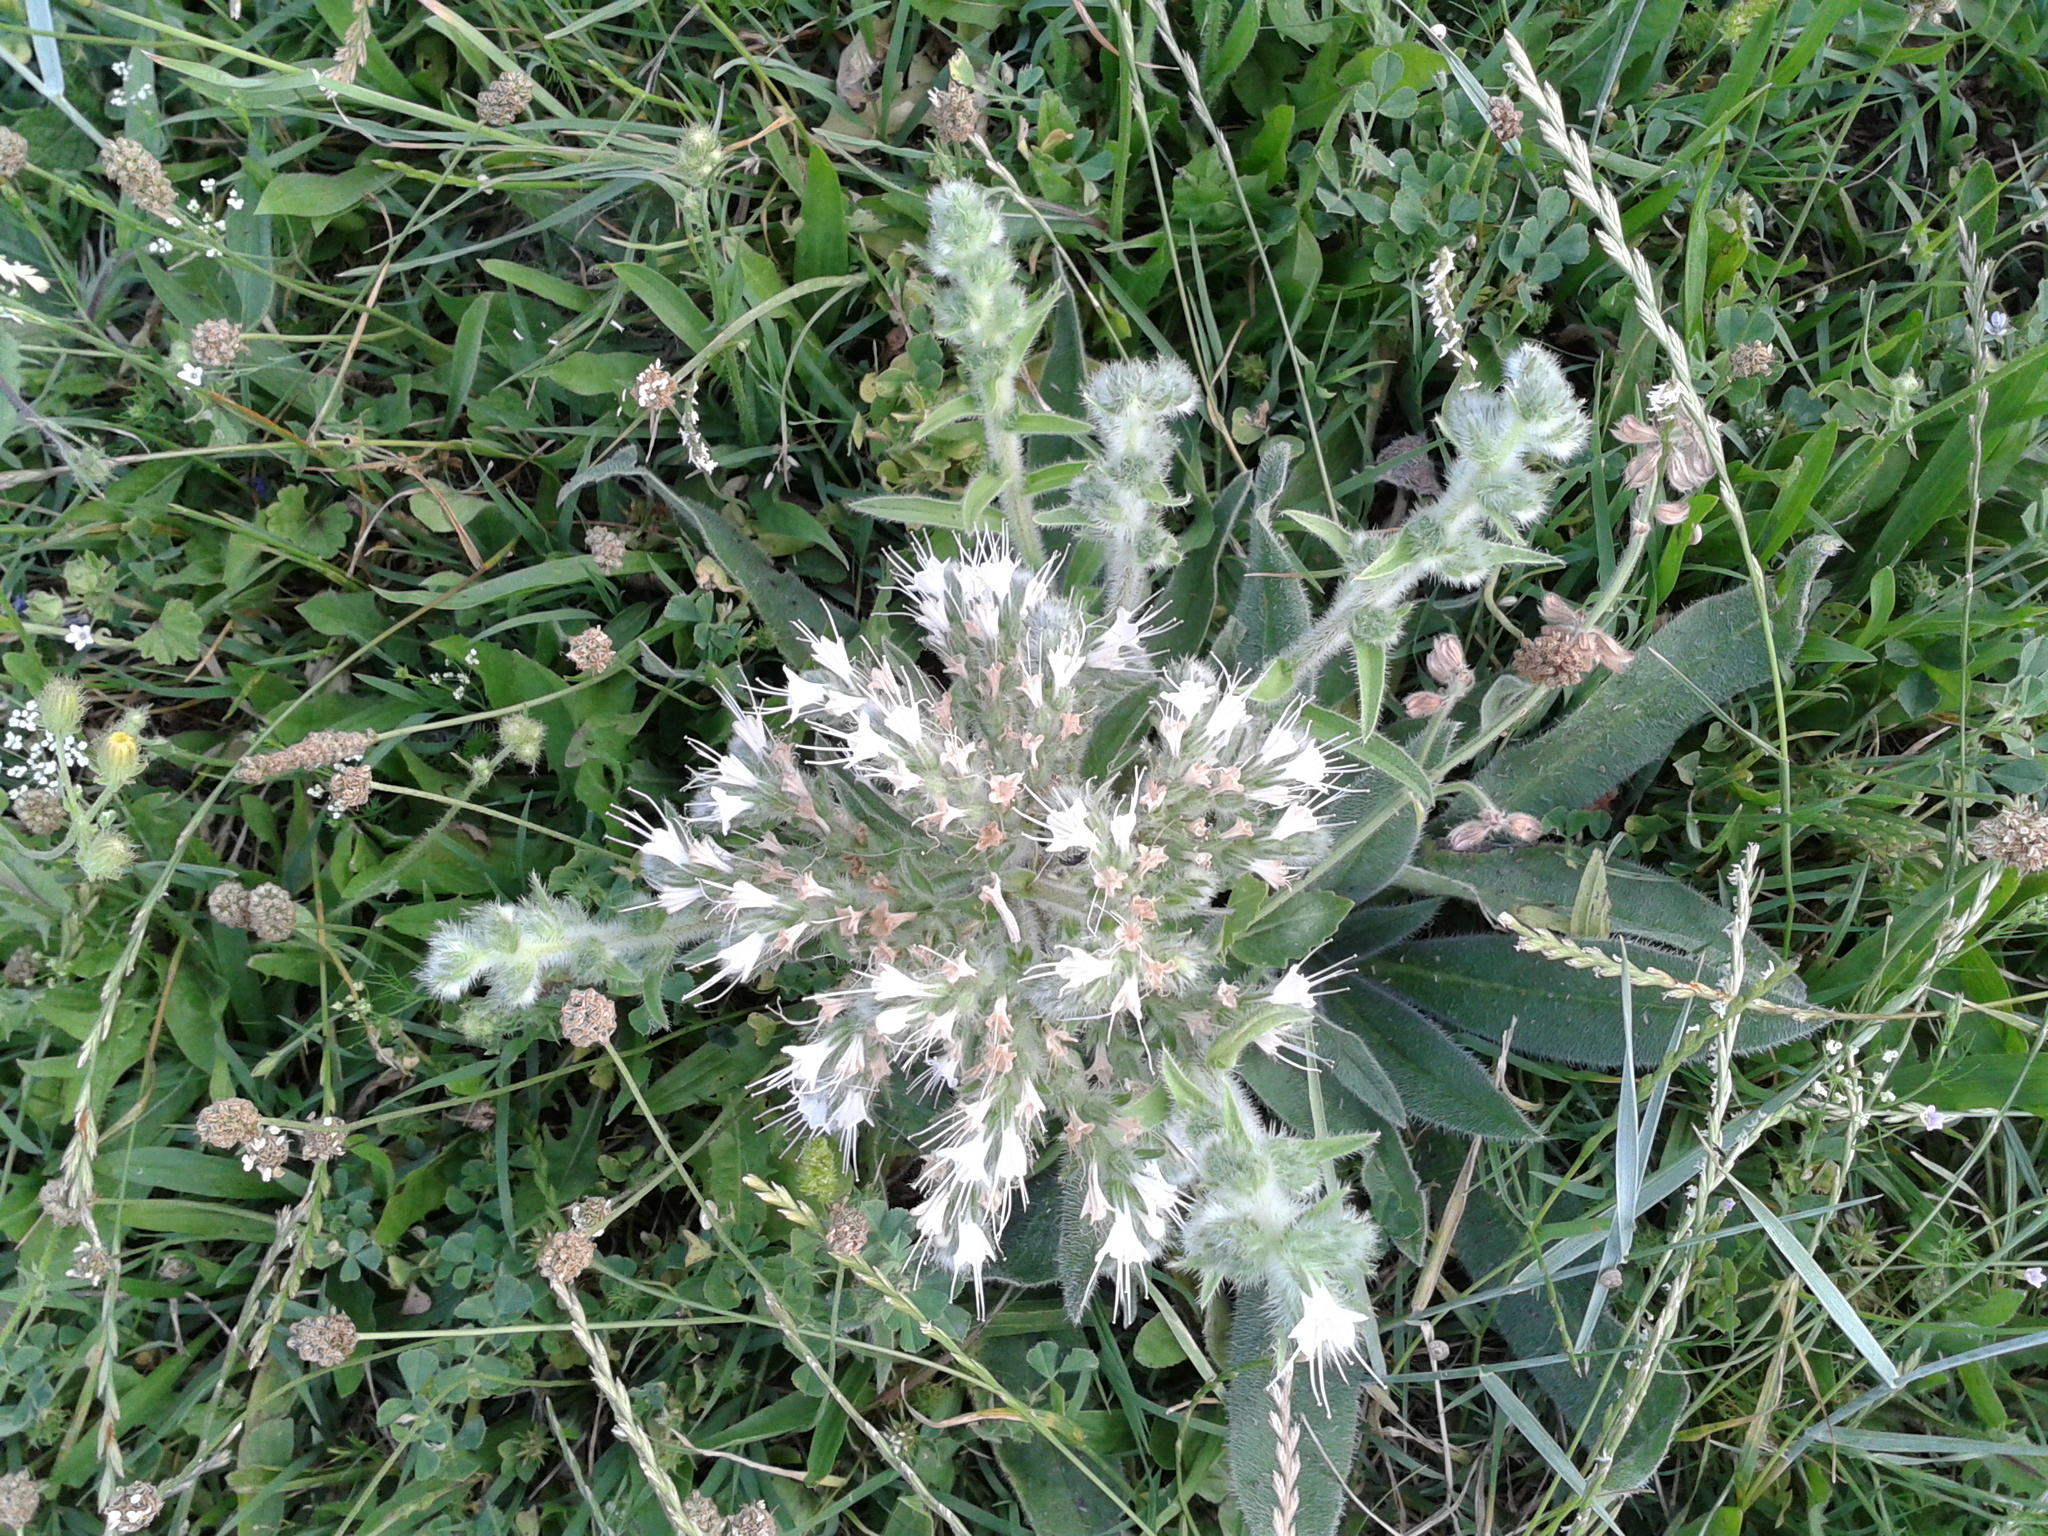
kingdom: Plantae
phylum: Tracheophyta
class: Magnoliopsida
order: Boraginales
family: Boraginaceae
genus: Echium
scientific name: Echium italicum
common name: Italian viper's bugloss
